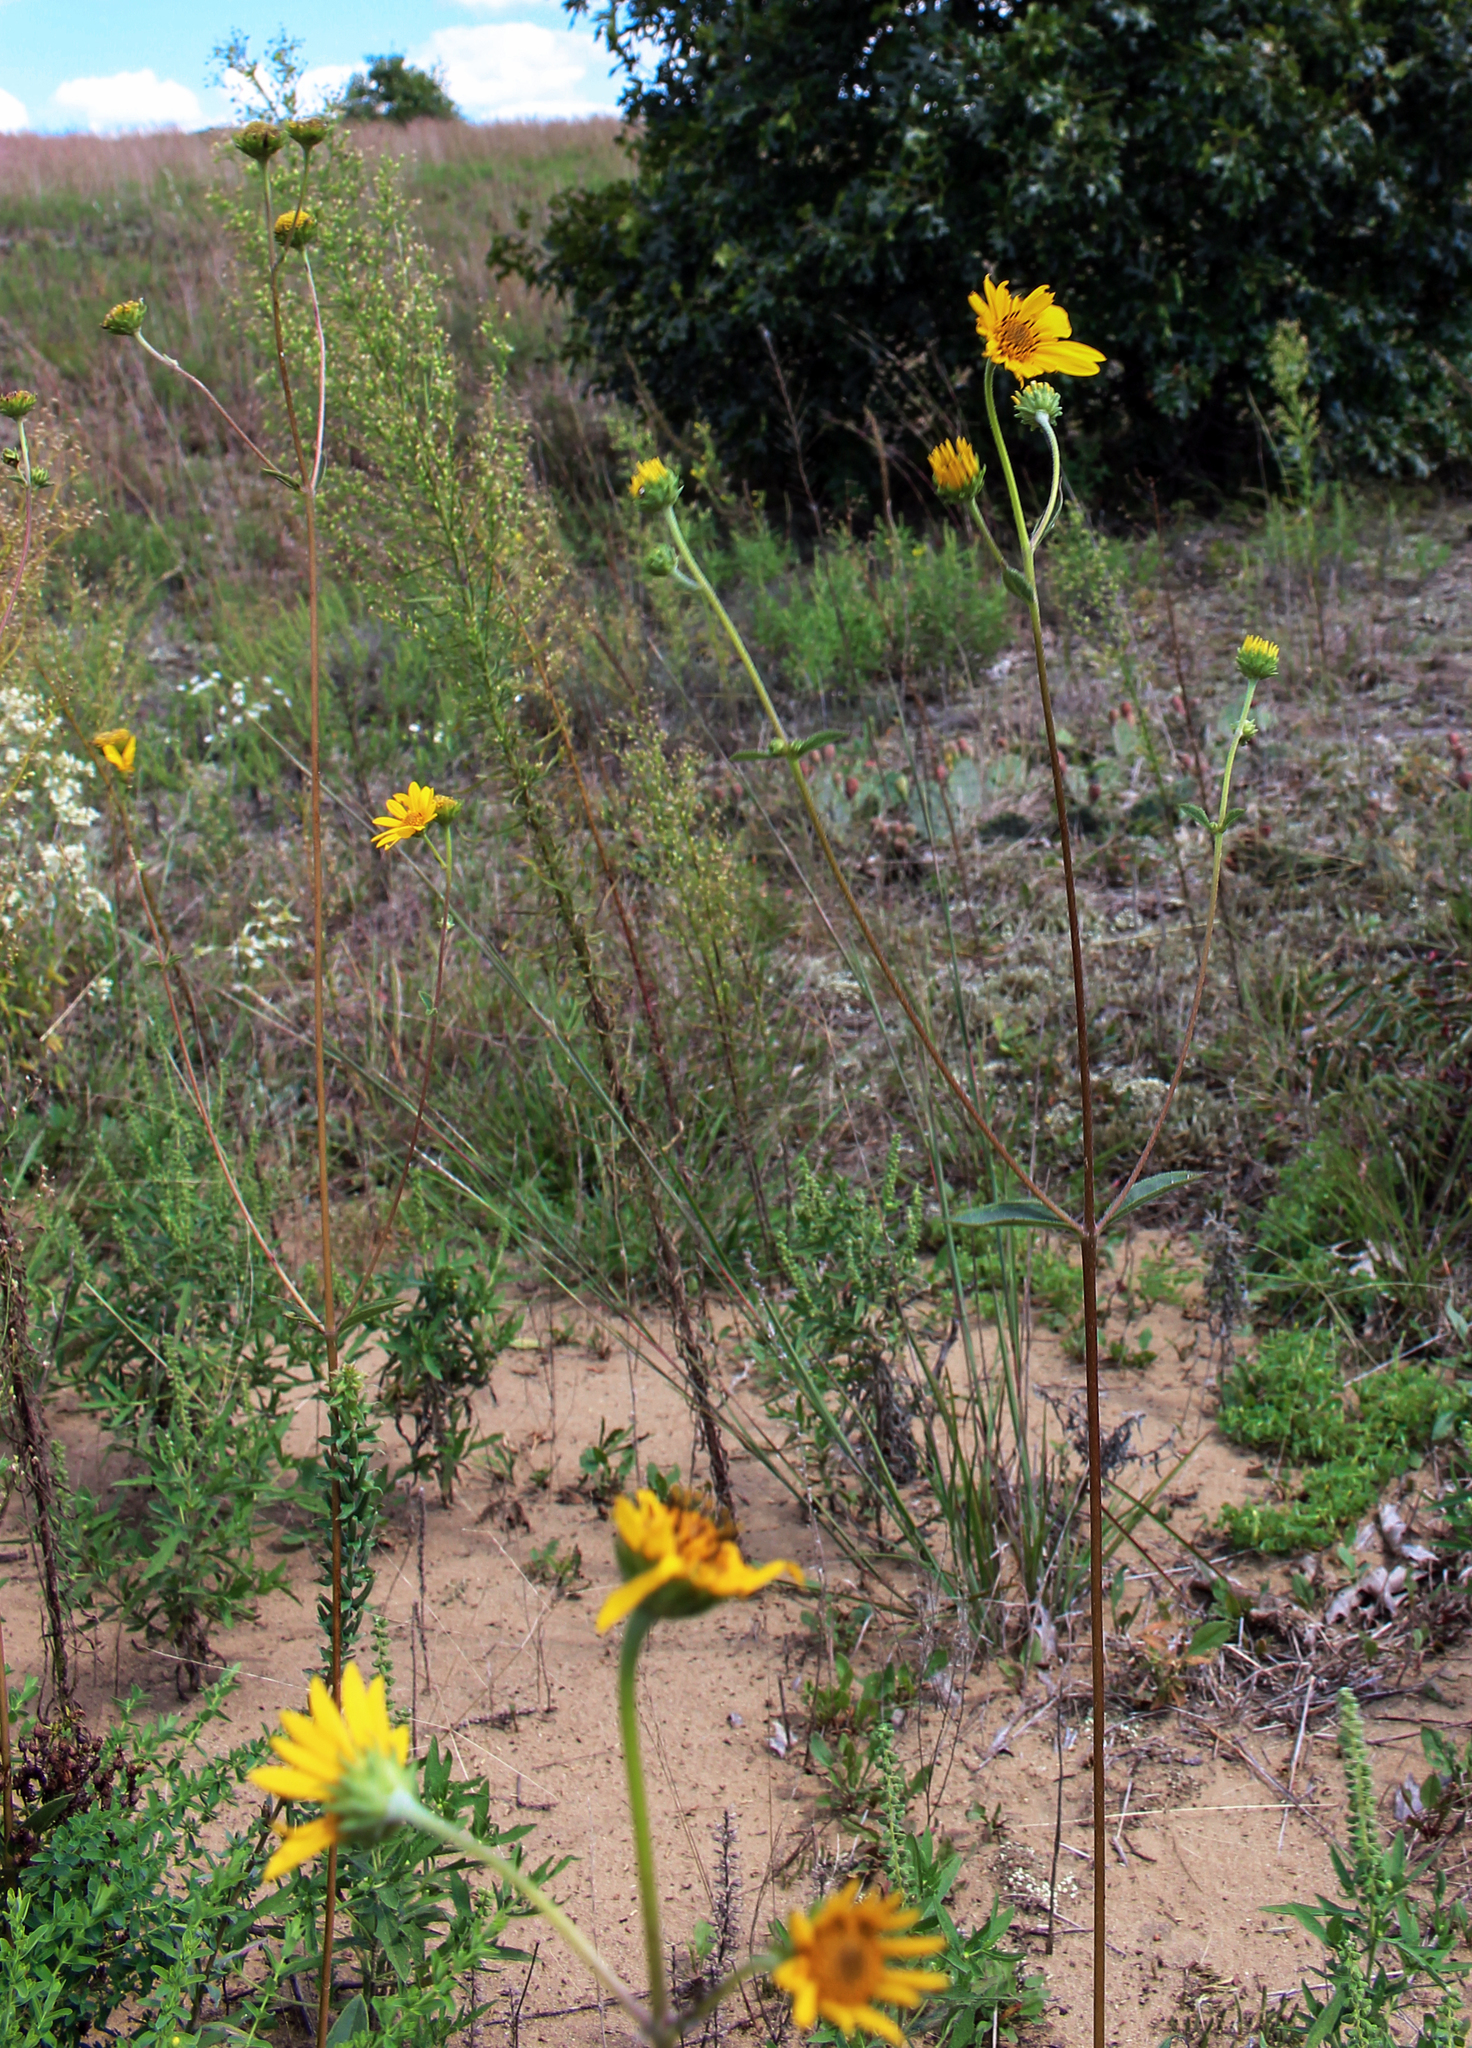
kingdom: Plantae
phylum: Tracheophyta
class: Magnoliopsida
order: Asterales
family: Asteraceae
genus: Helianthus
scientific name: Helianthus occidentalis
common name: Western sunflower
